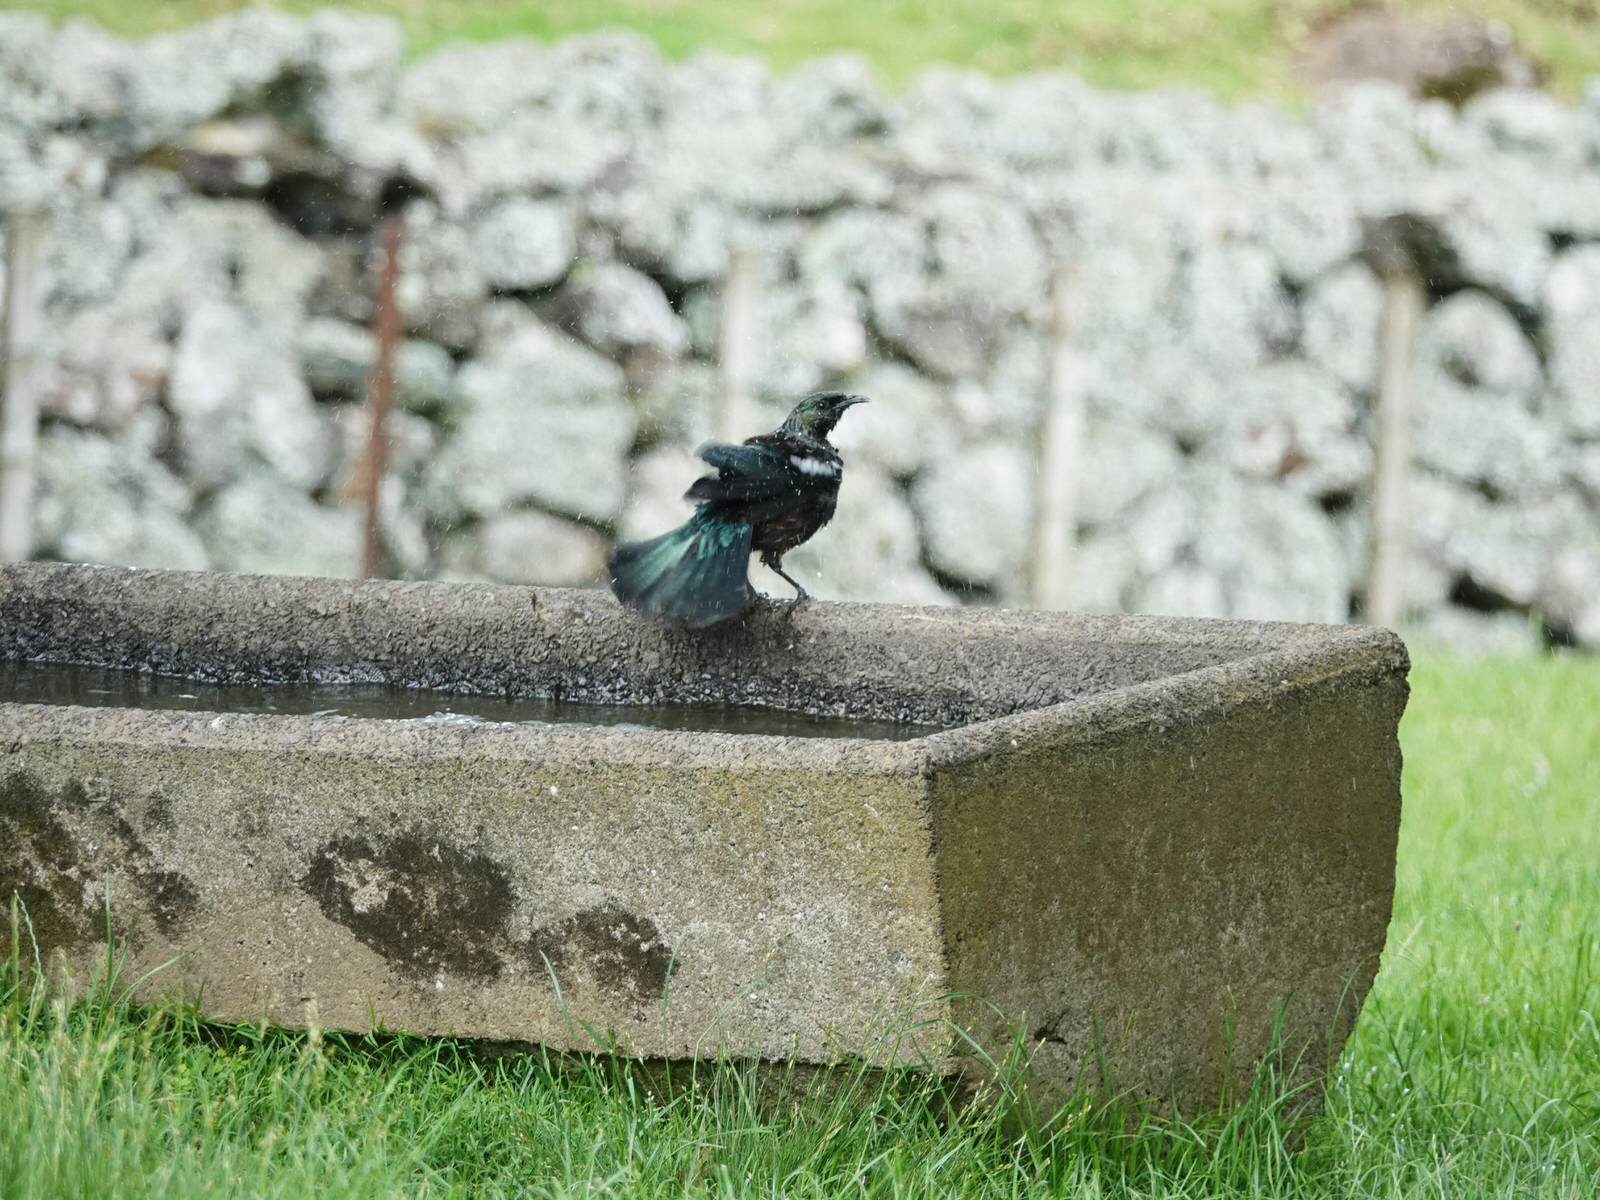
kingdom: Animalia
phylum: Chordata
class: Aves
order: Passeriformes
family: Meliphagidae
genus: Prosthemadera
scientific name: Prosthemadera novaeseelandiae
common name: Tui
